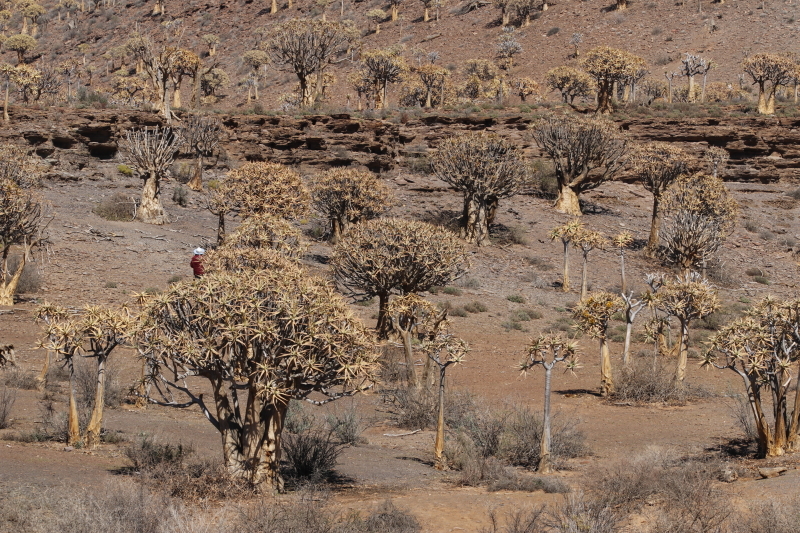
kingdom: Plantae
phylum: Tracheophyta
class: Liliopsida
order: Asparagales
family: Asphodelaceae
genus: Aloidendron
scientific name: Aloidendron dichotomum
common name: Quiver tree
